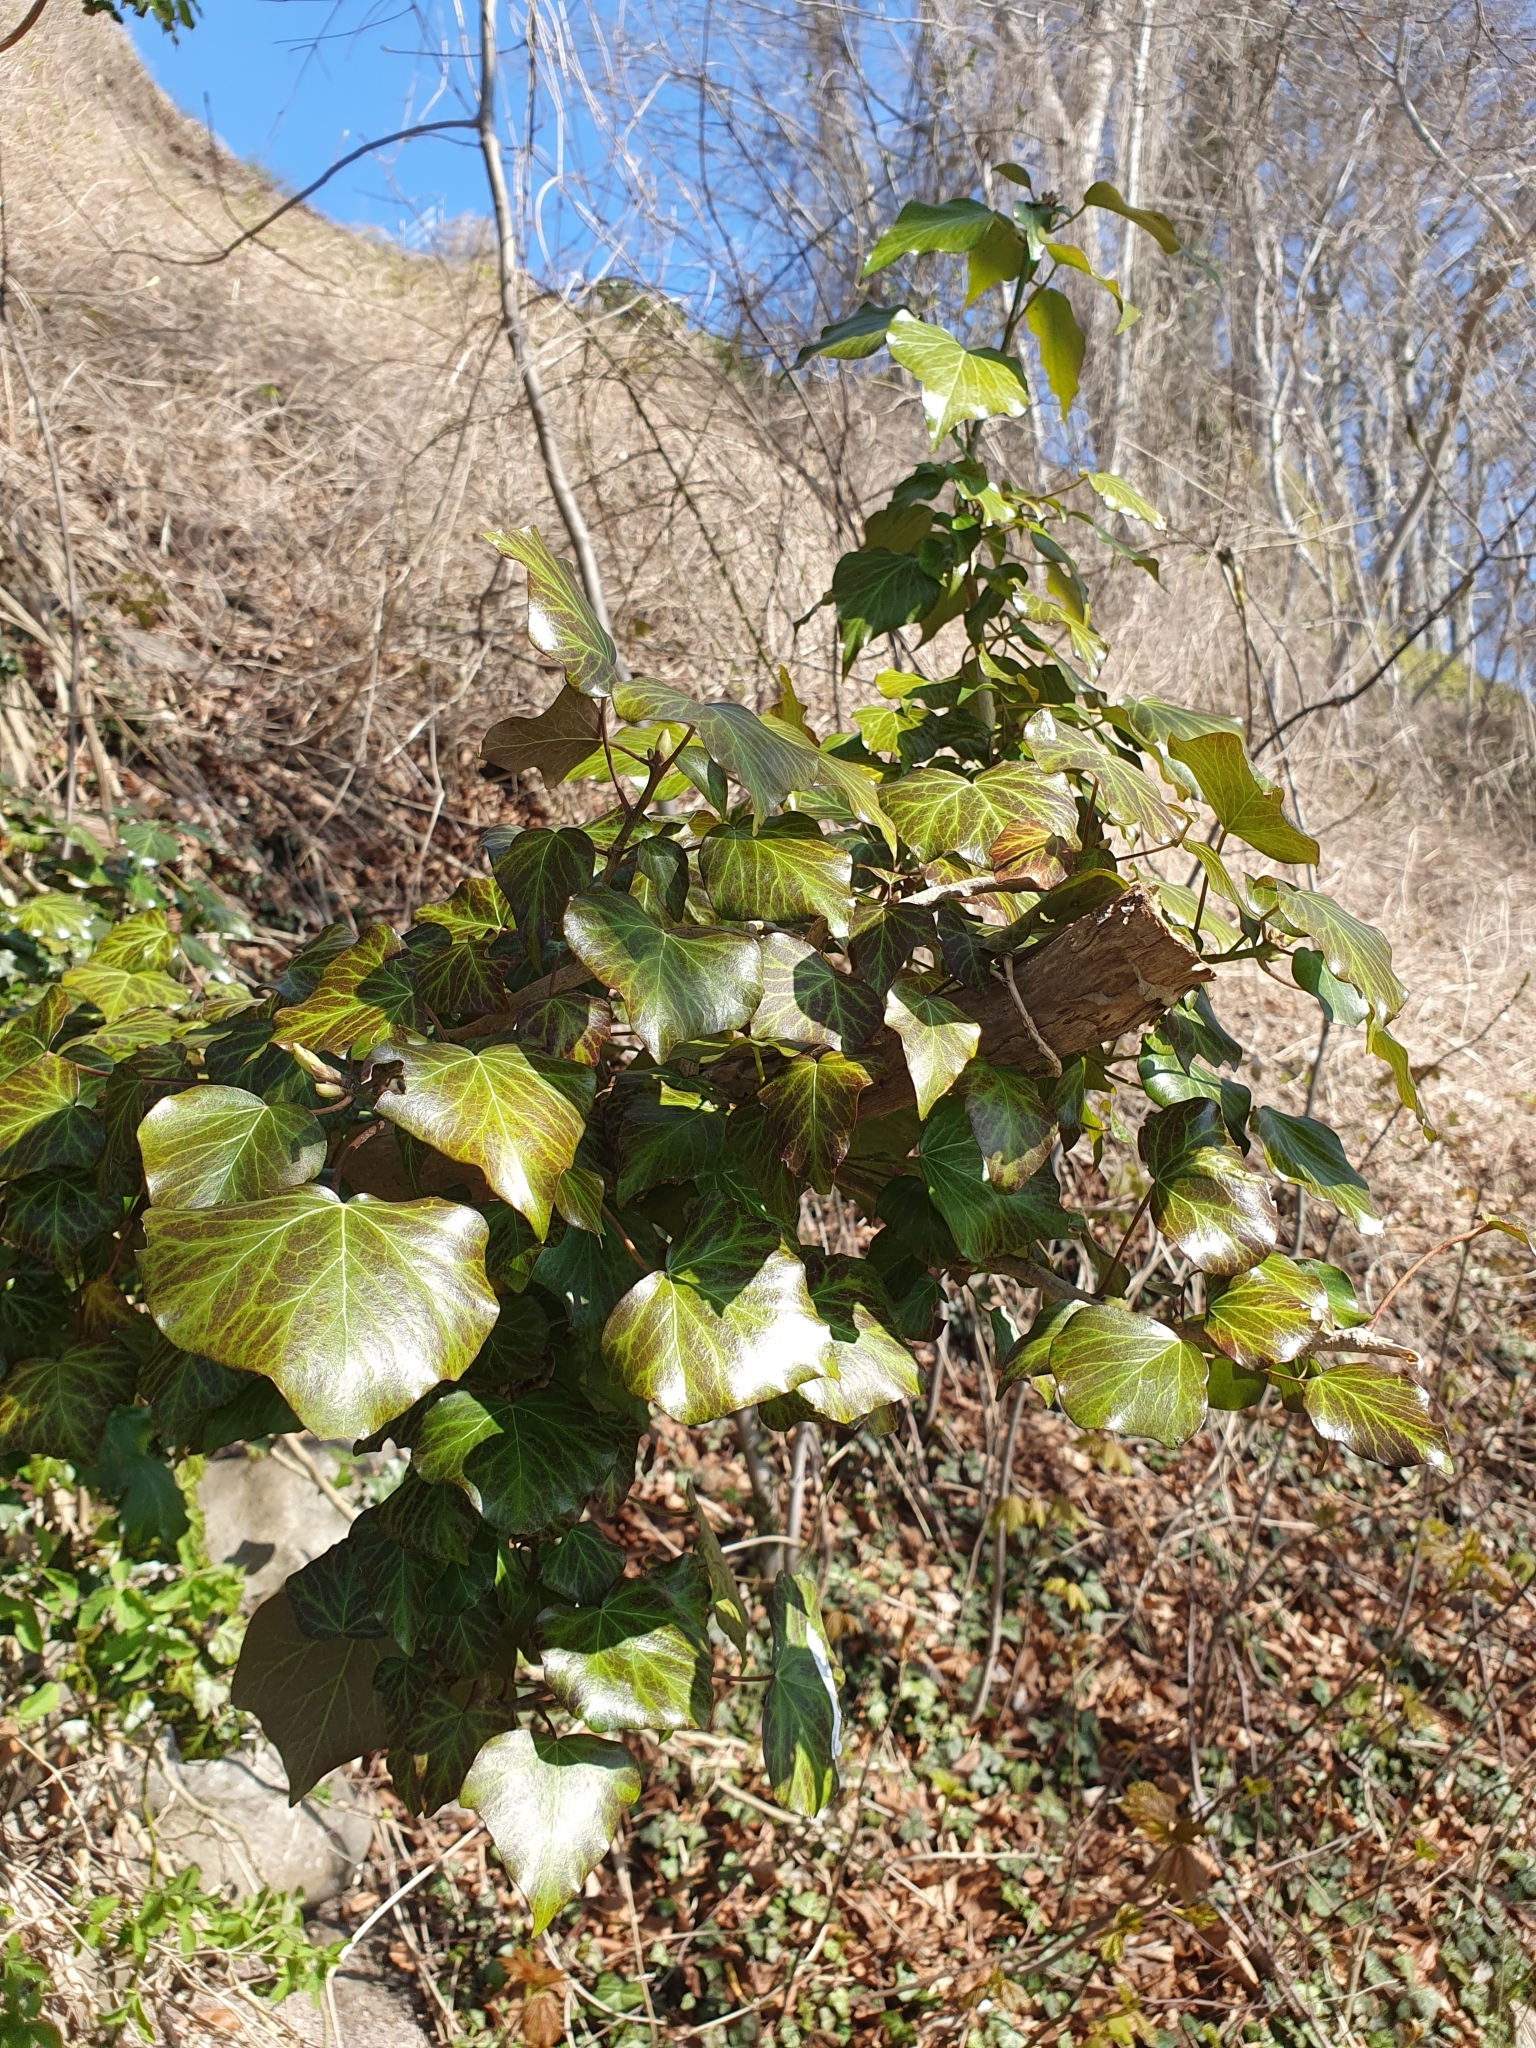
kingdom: Plantae
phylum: Tracheophyta
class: Magnoliopsida
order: Apiales
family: Araliaceae
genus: Hedera
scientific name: Hedera helix
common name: Ivy
